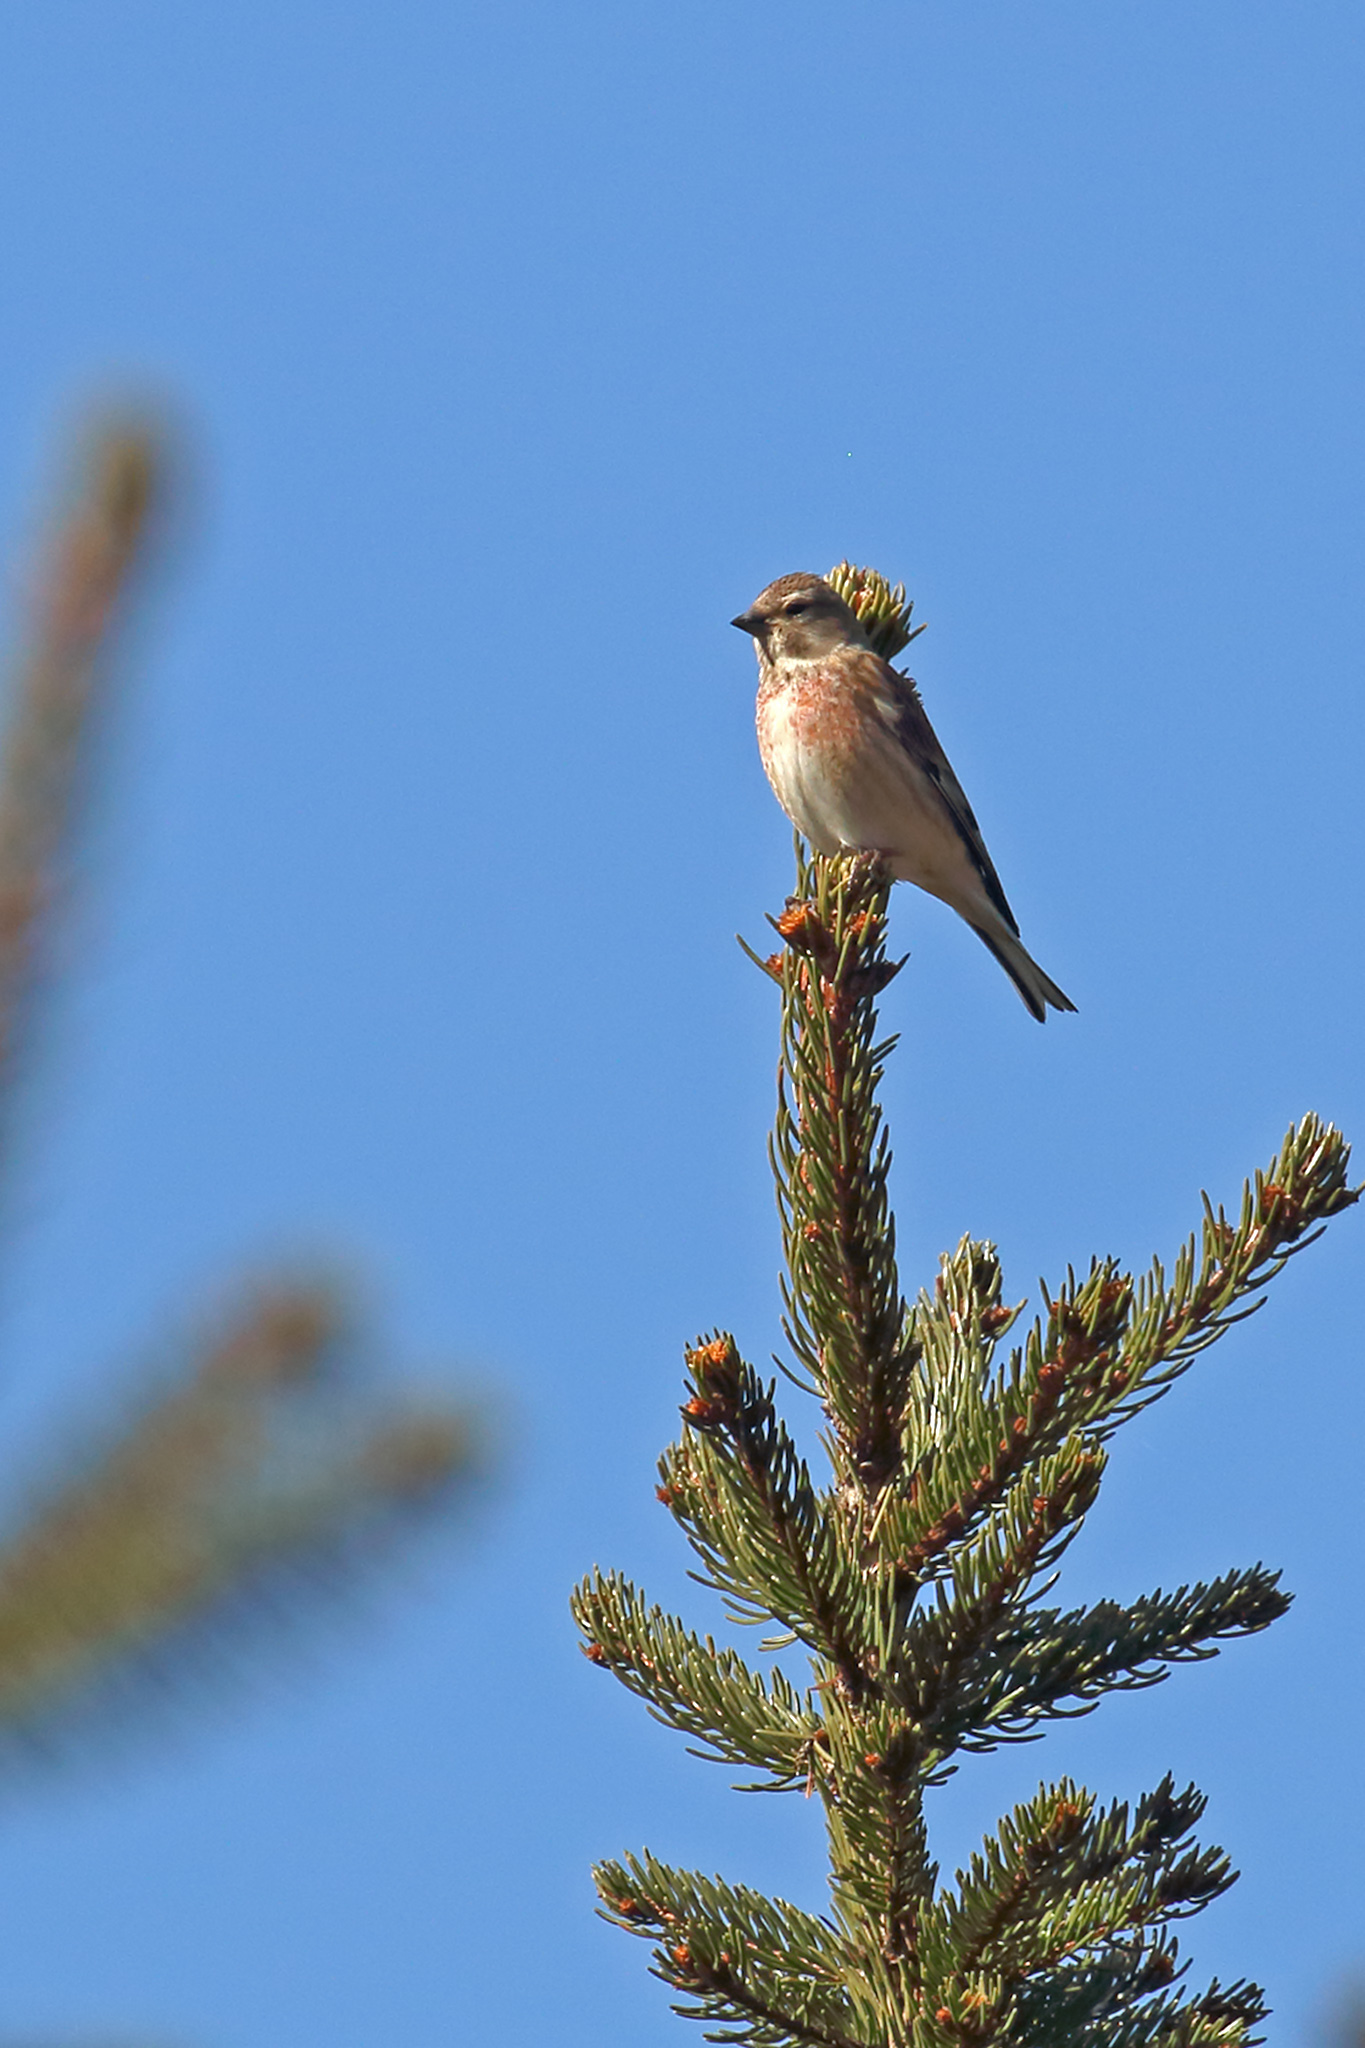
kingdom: Animalia
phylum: Chordata
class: Aves
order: Passeriformes
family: Fringillidae
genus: Linaria
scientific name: Linaria cannabina
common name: Common linnet
